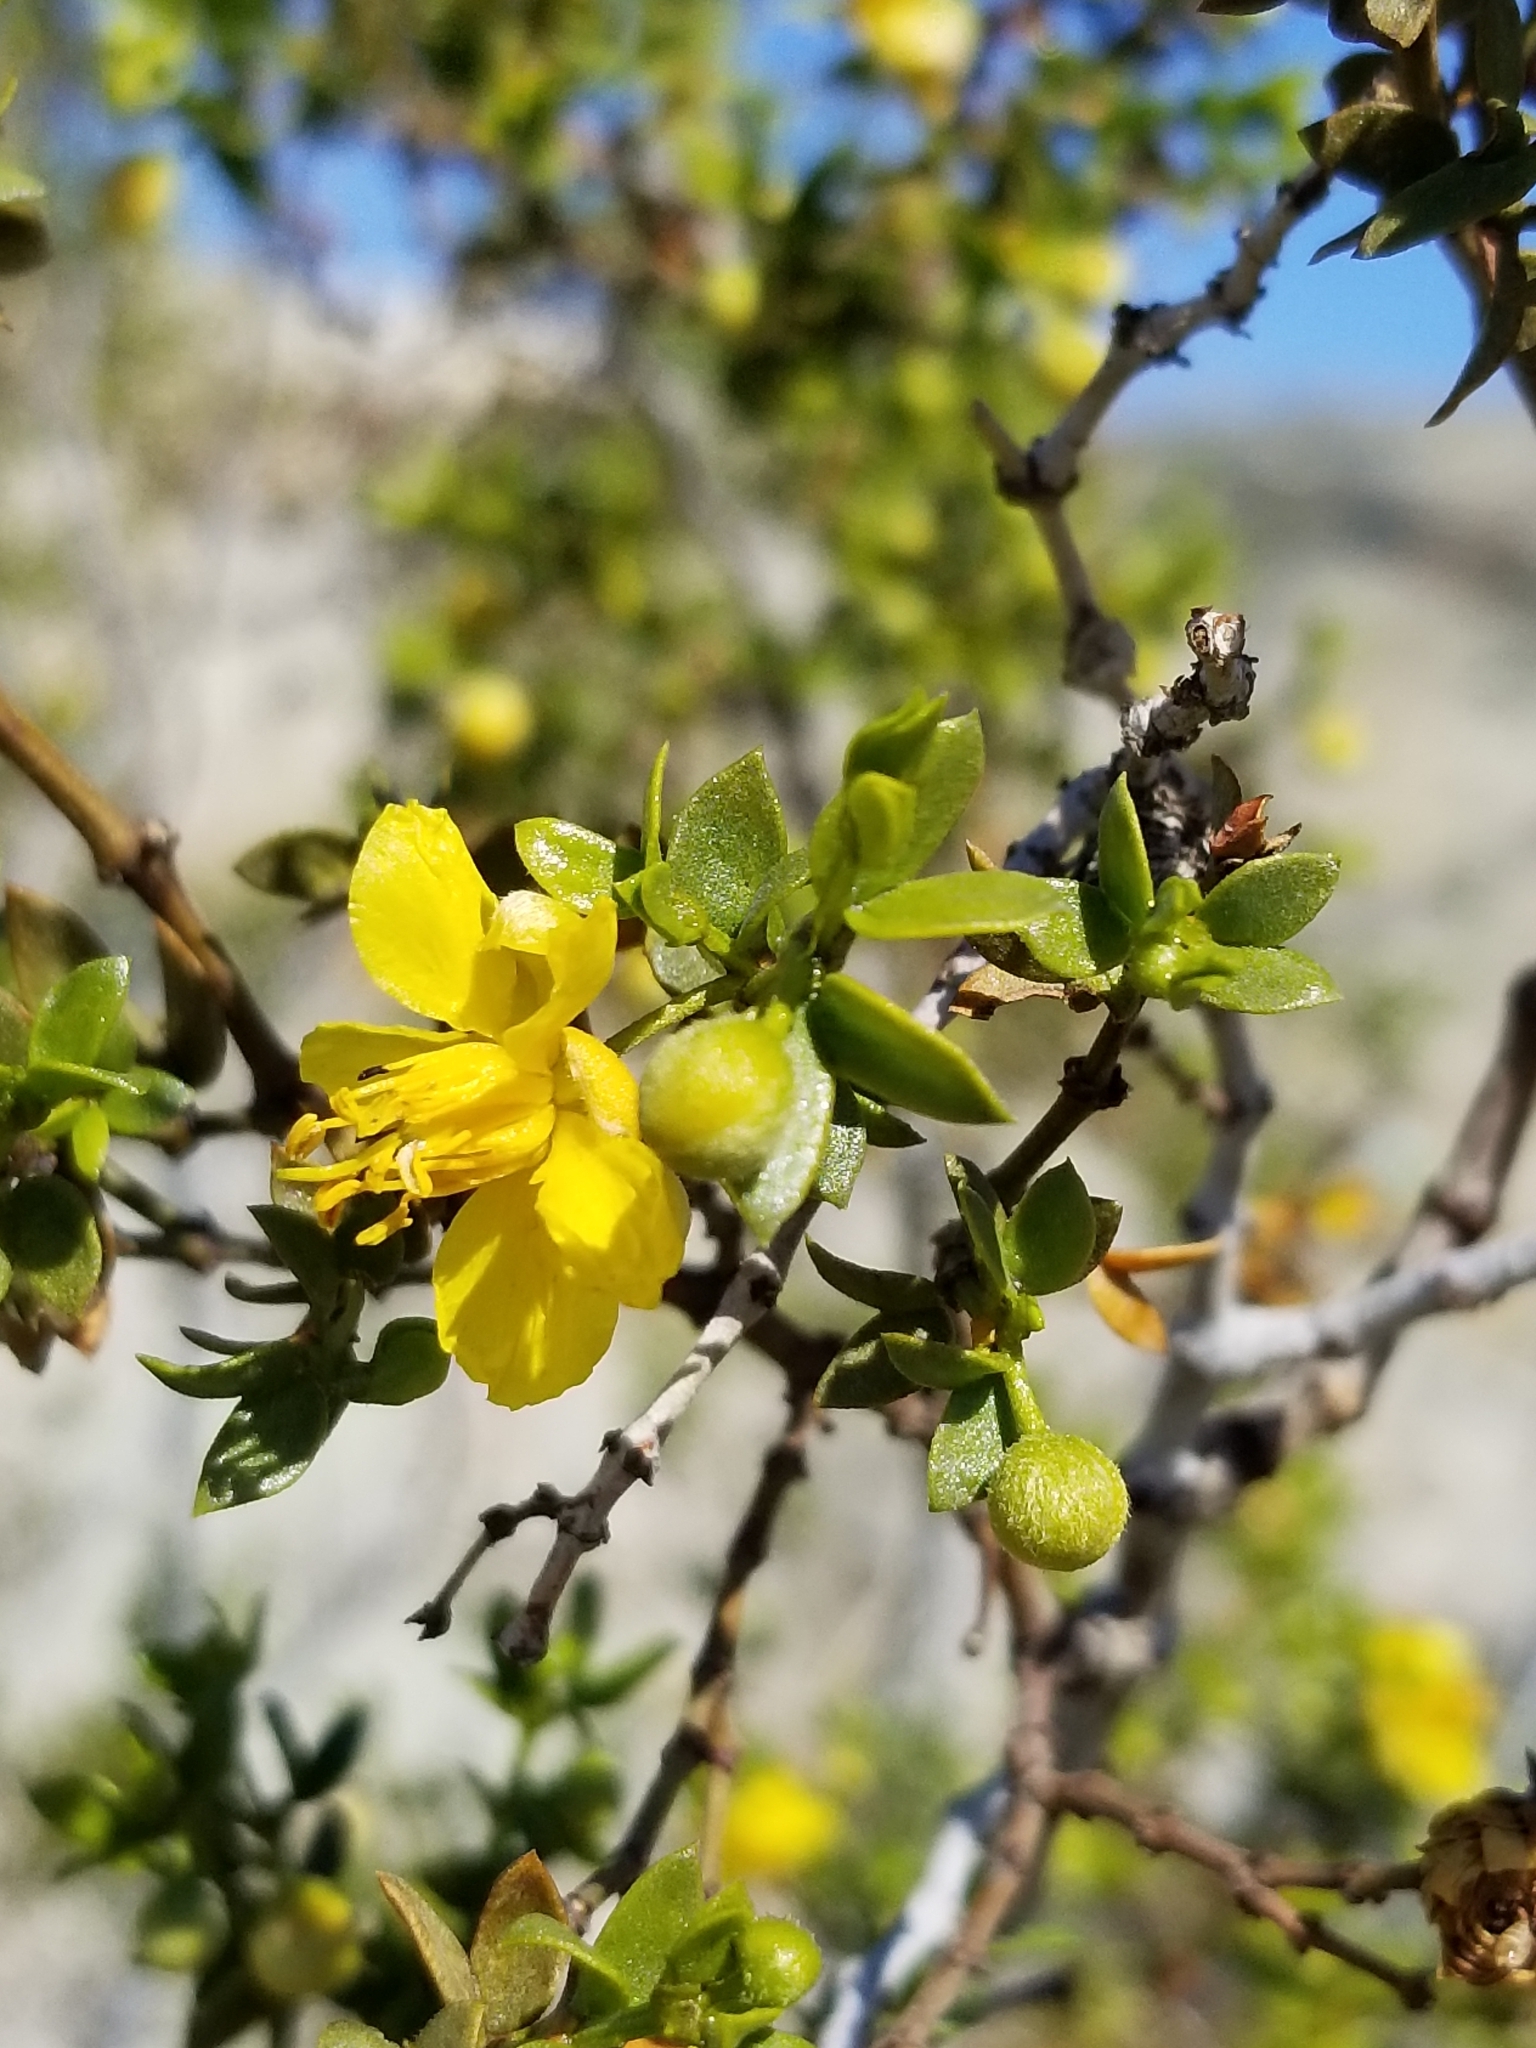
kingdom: Plantae
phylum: Tracheophyta
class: Magnoliopsida
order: Zygophyllales
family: Zygophyllaceae
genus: Larrea
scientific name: Larrea tridentata
